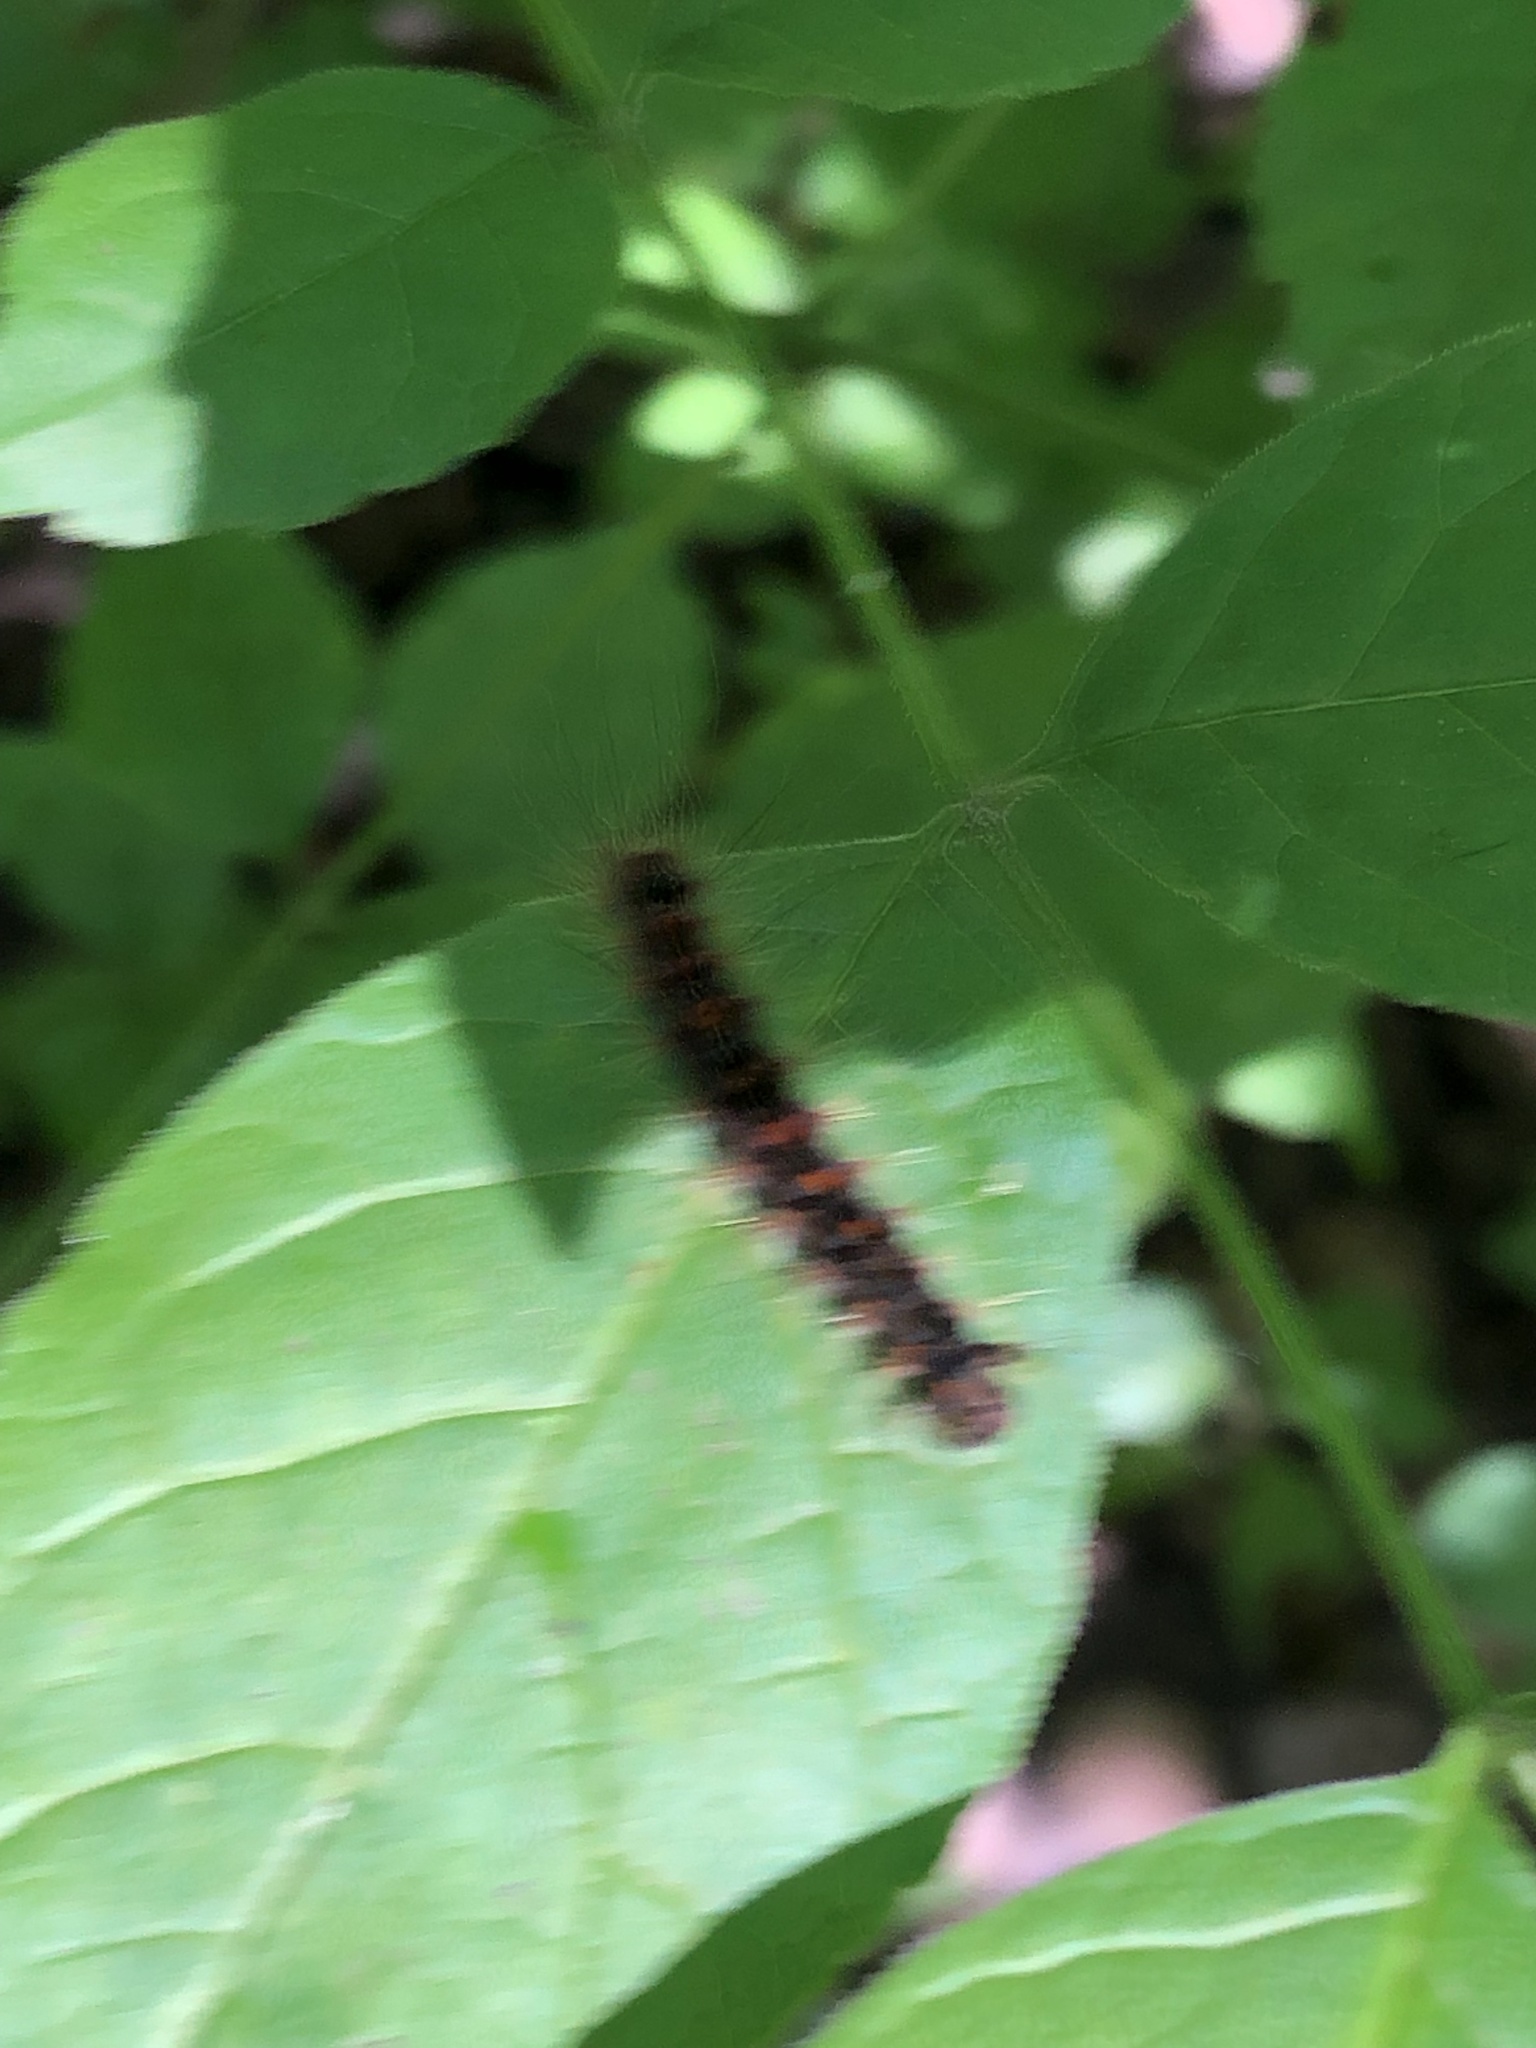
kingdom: Animalia
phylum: Arthropoda
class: Insecta
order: Lepidoptera
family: Erebidae
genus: Lymantria
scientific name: Lymantria dispar
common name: Gypsy moth
